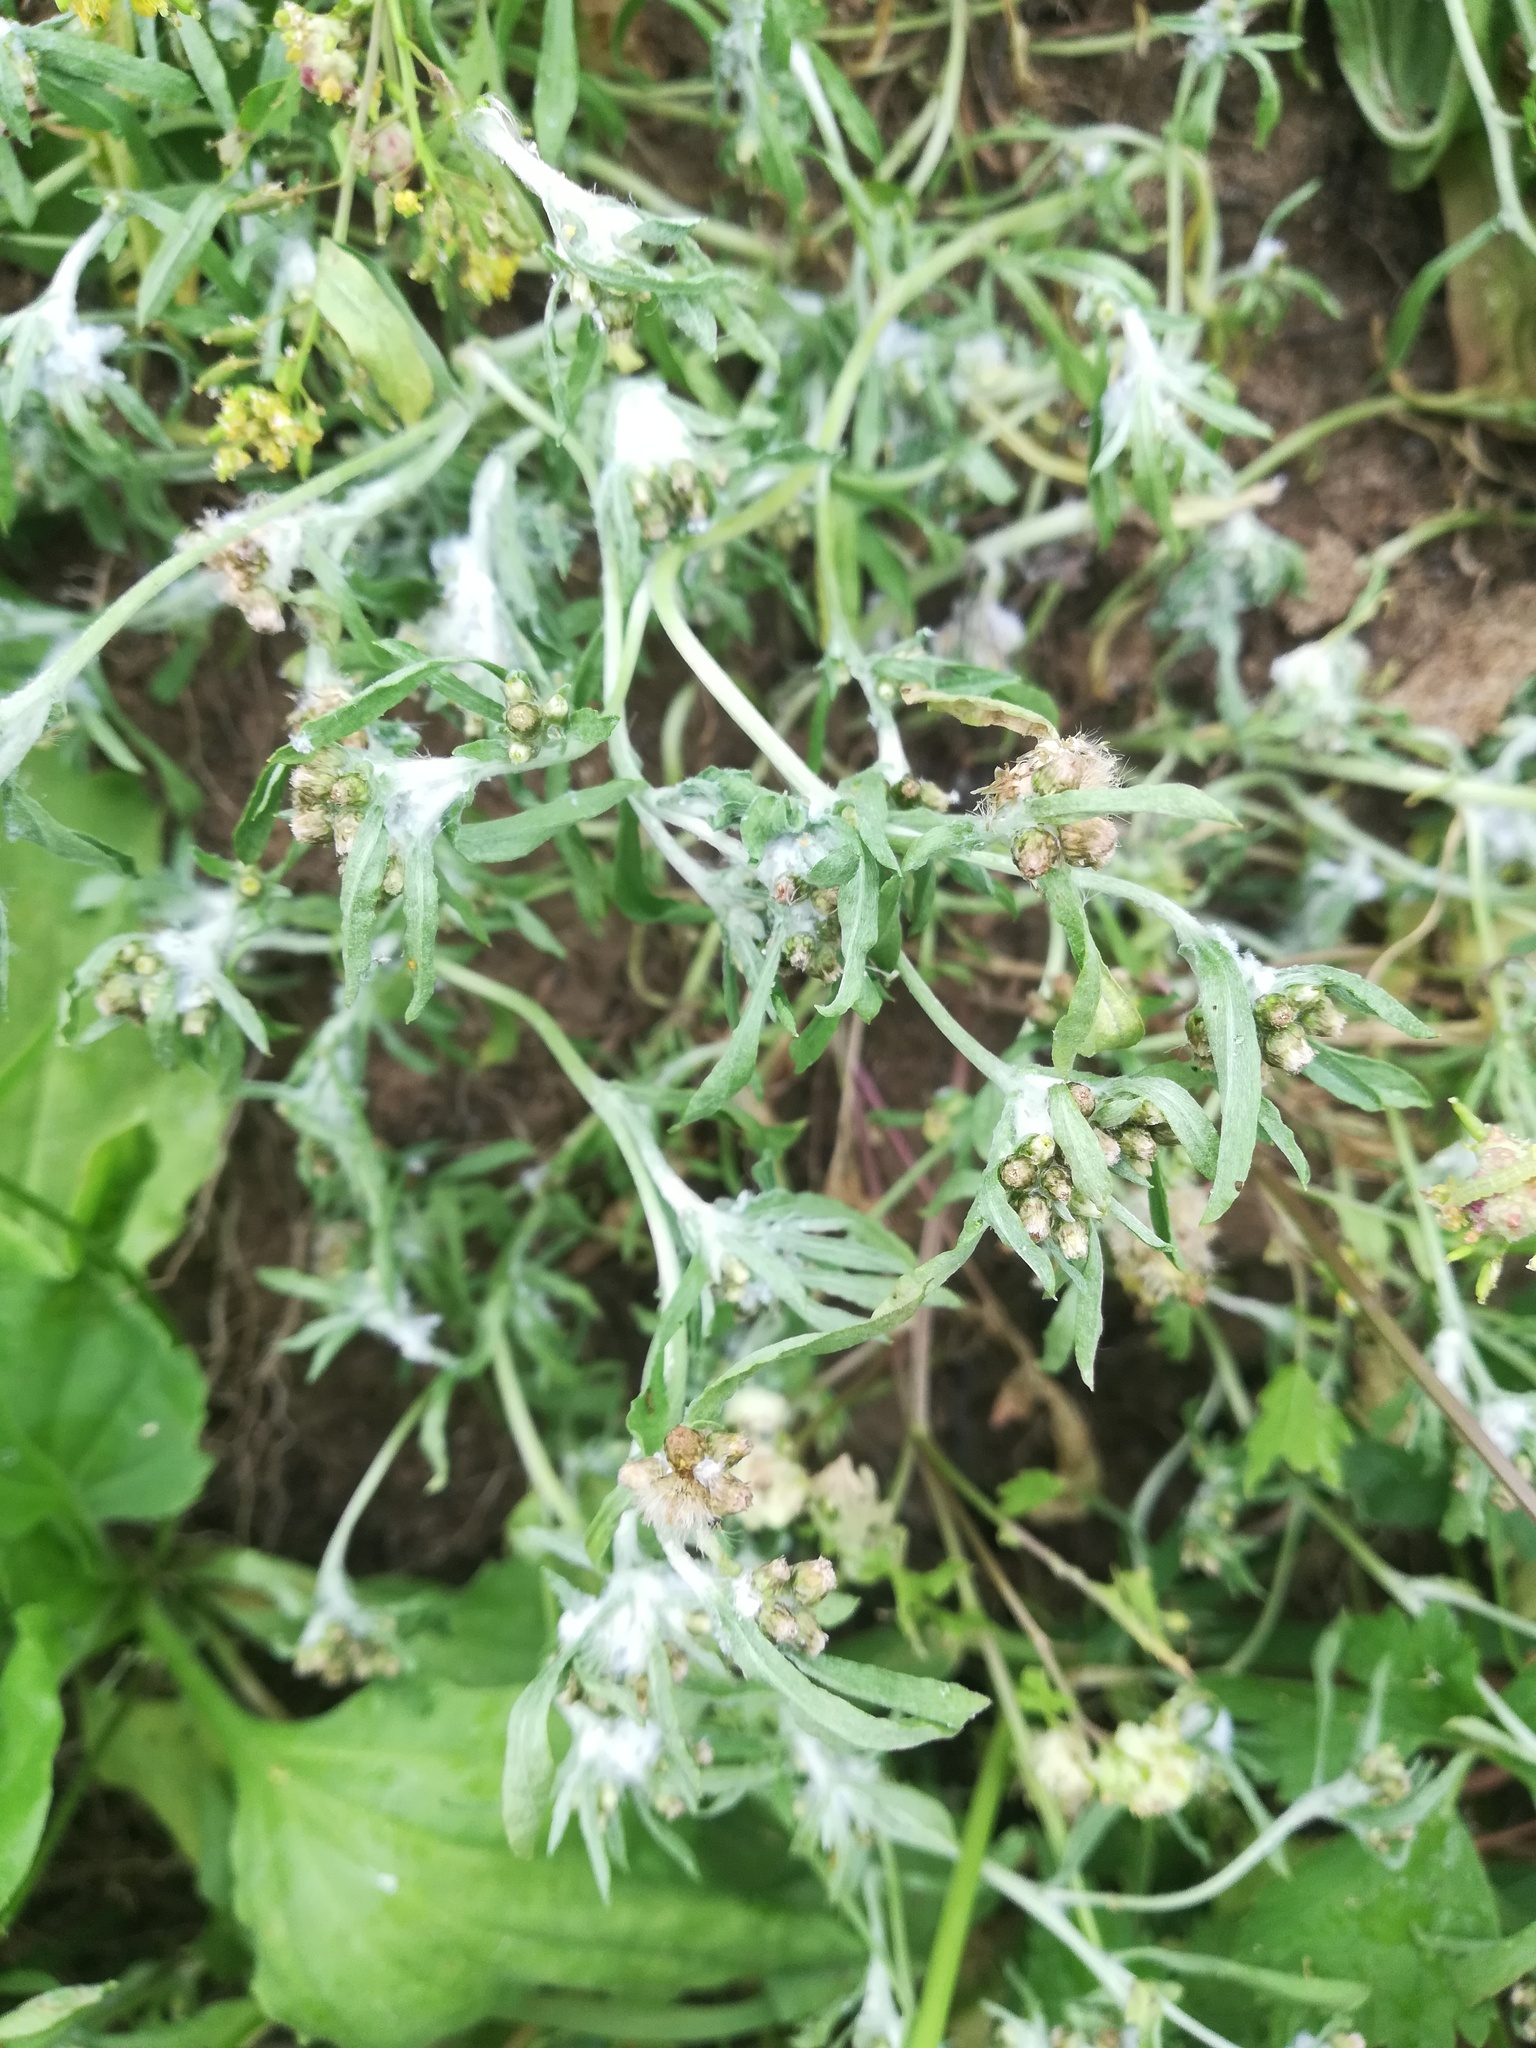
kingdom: Plantae
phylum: Tracheophyta
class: Magnoliopsida
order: Asterales
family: Asteraceae
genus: Gnaphalium
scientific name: Gnaphalium uliginosum
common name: Marsh cudweed
